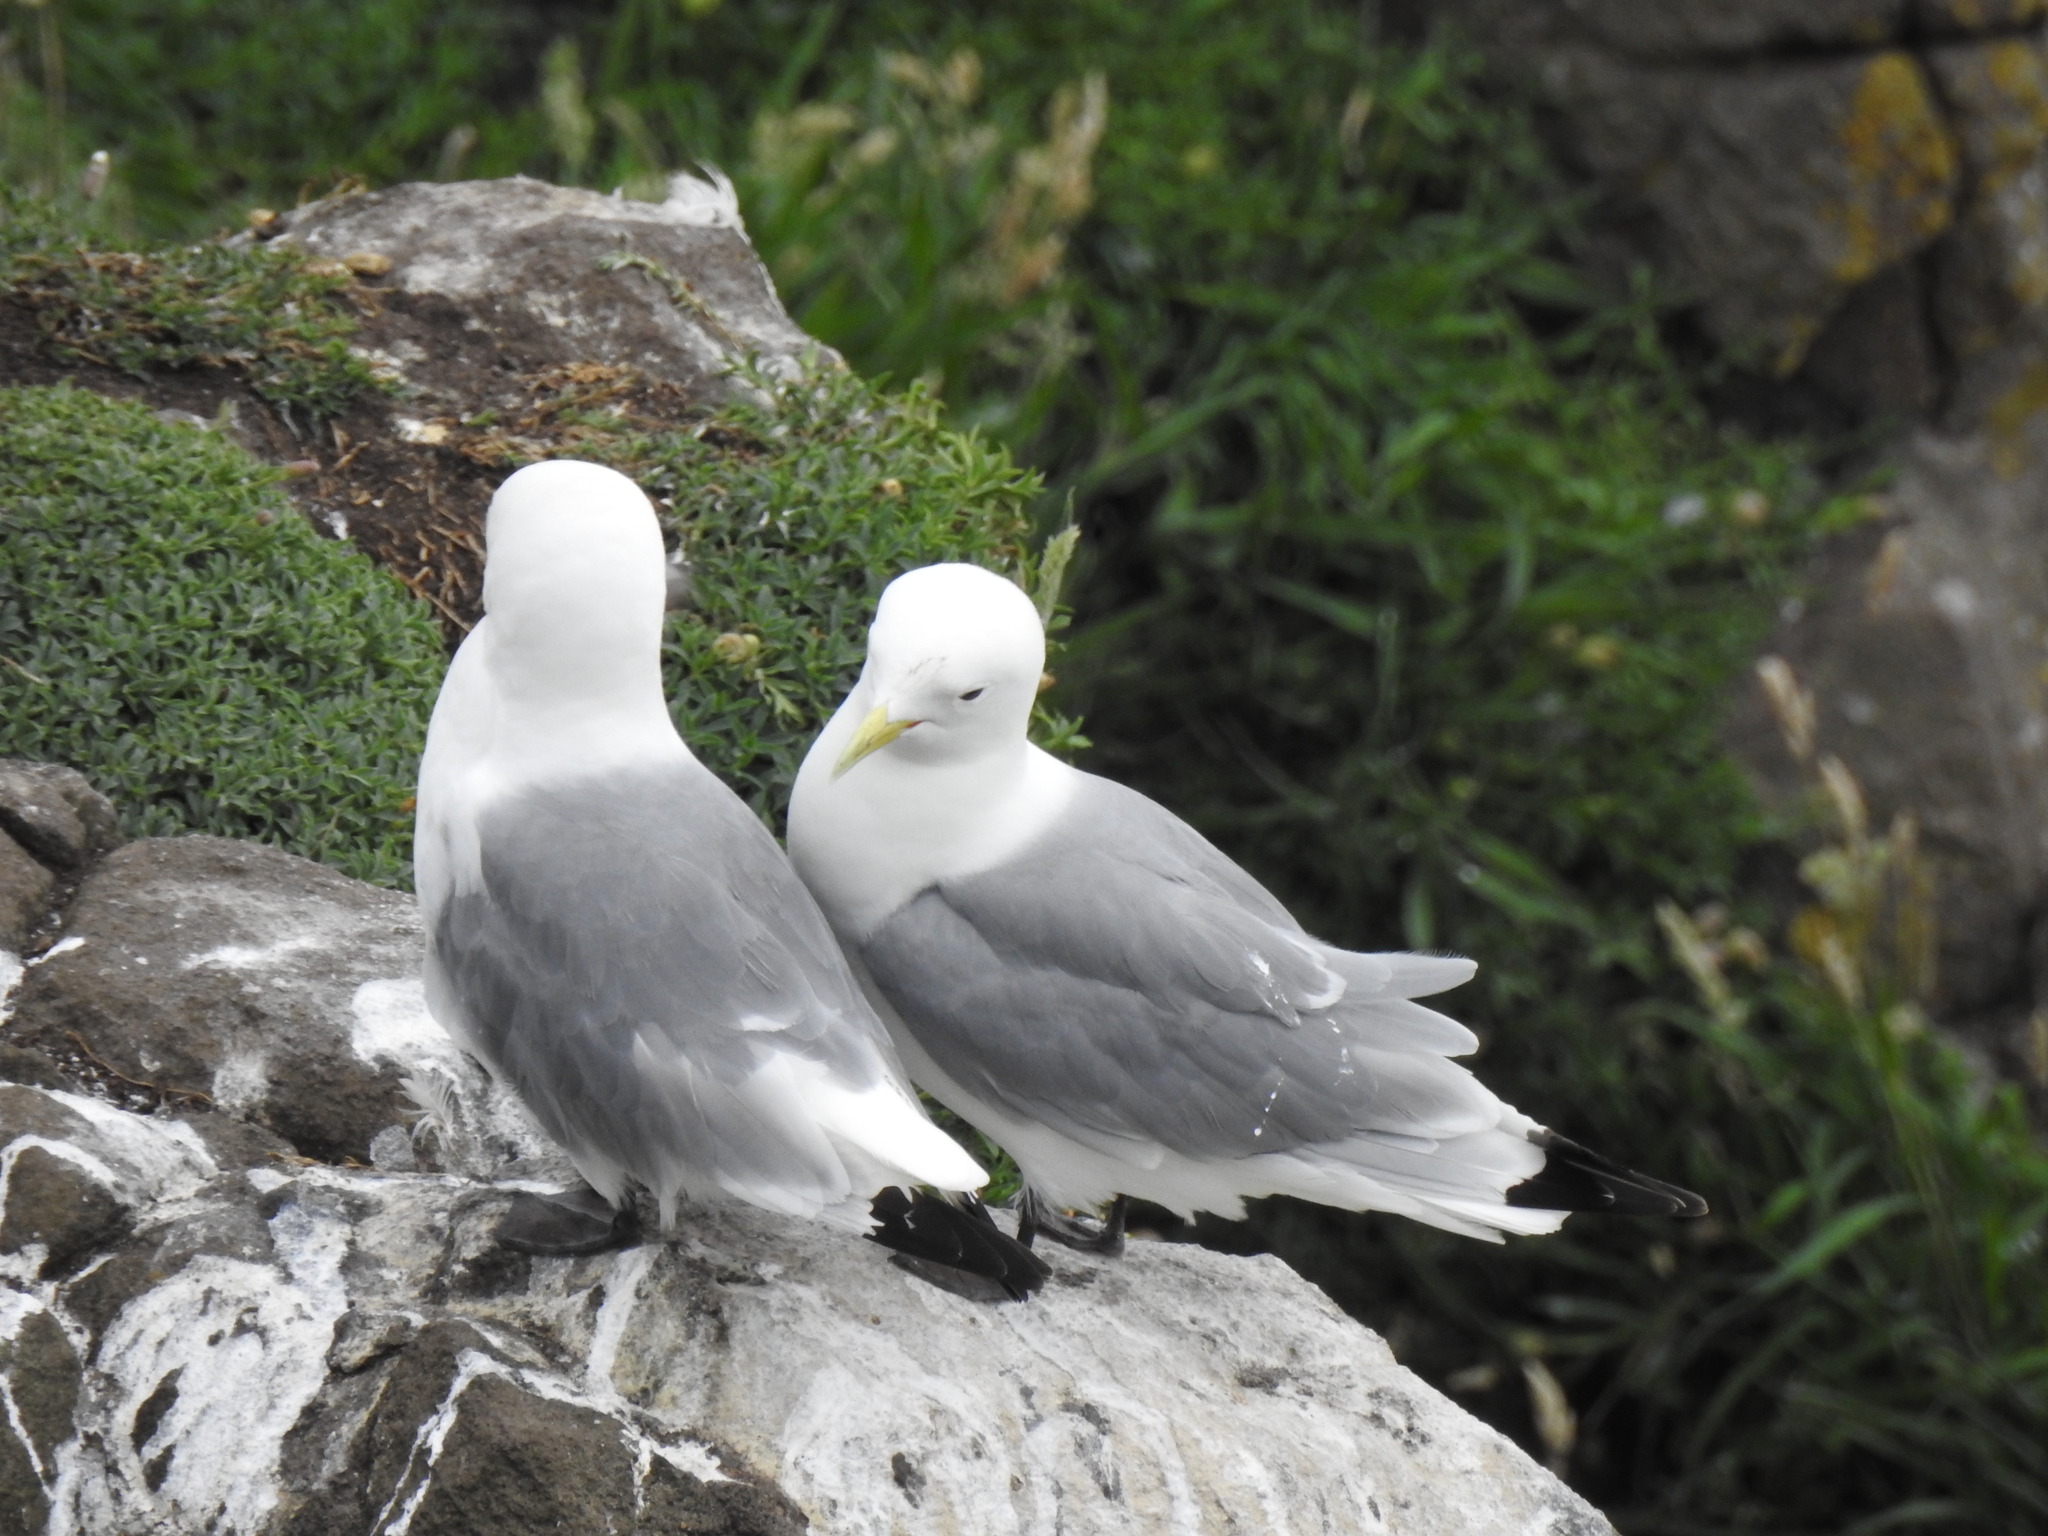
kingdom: Animalia
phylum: Chordata
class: Aves
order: Charadriiformes
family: Laridae
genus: Rissa
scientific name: Rissa tridactyla
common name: Black-legged kittiwake
